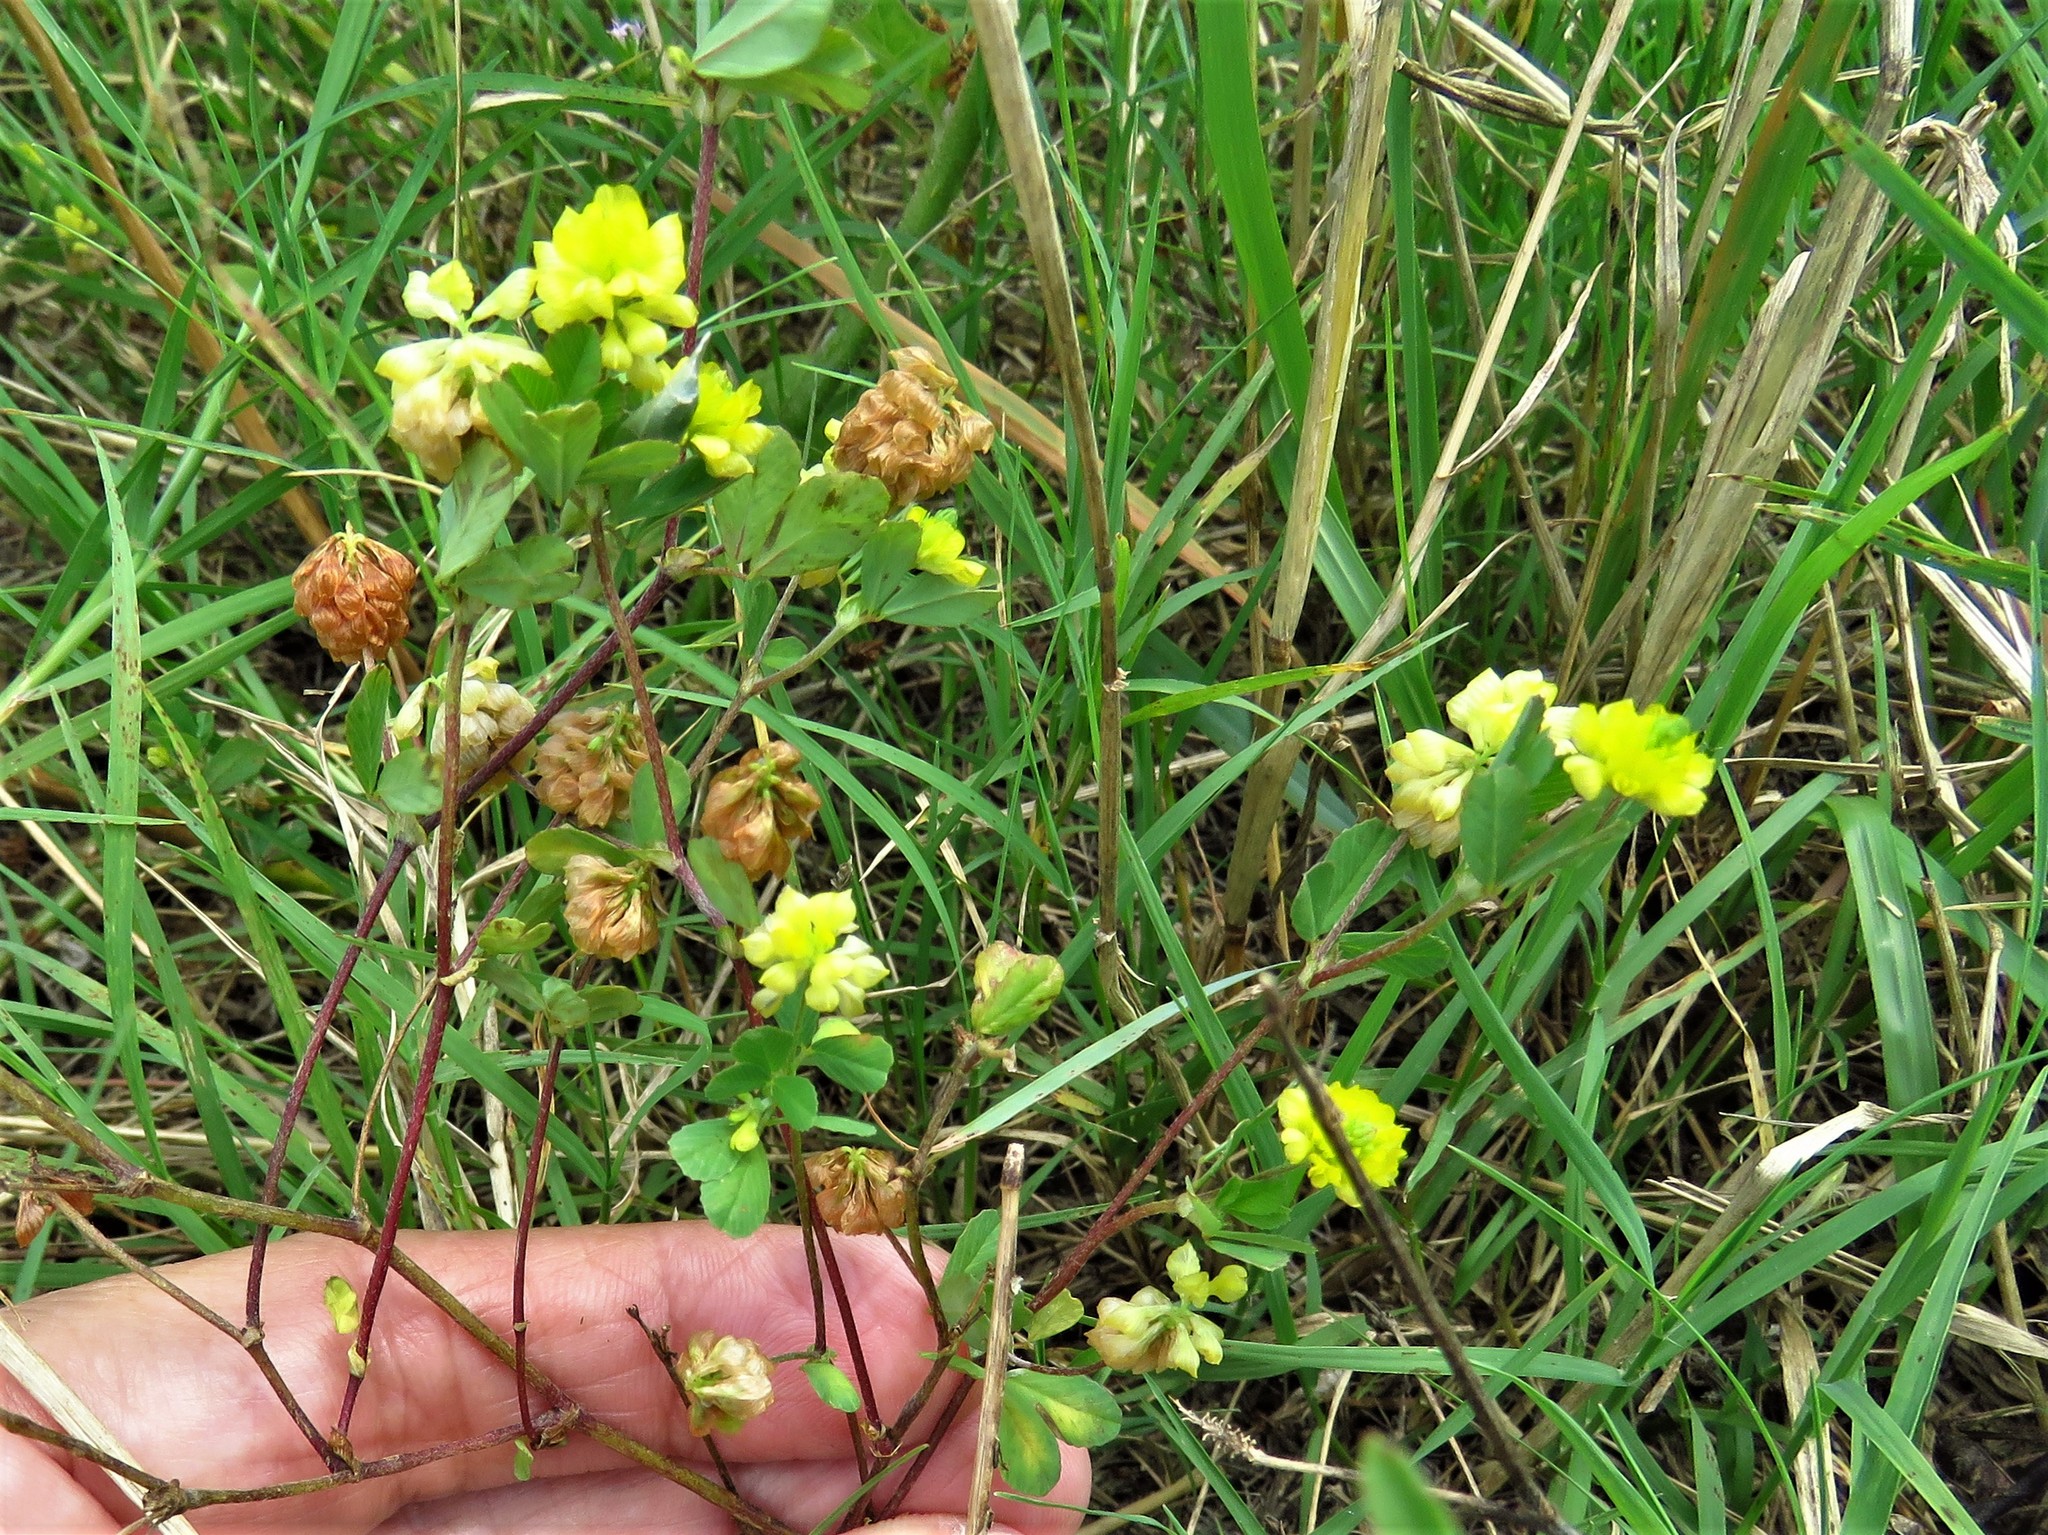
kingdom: Plantae
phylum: Tracheophyta
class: Magnoliopsida
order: Fabales
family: Fabaceae
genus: Trifolium
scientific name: Trifolium campestre
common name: Field clover
